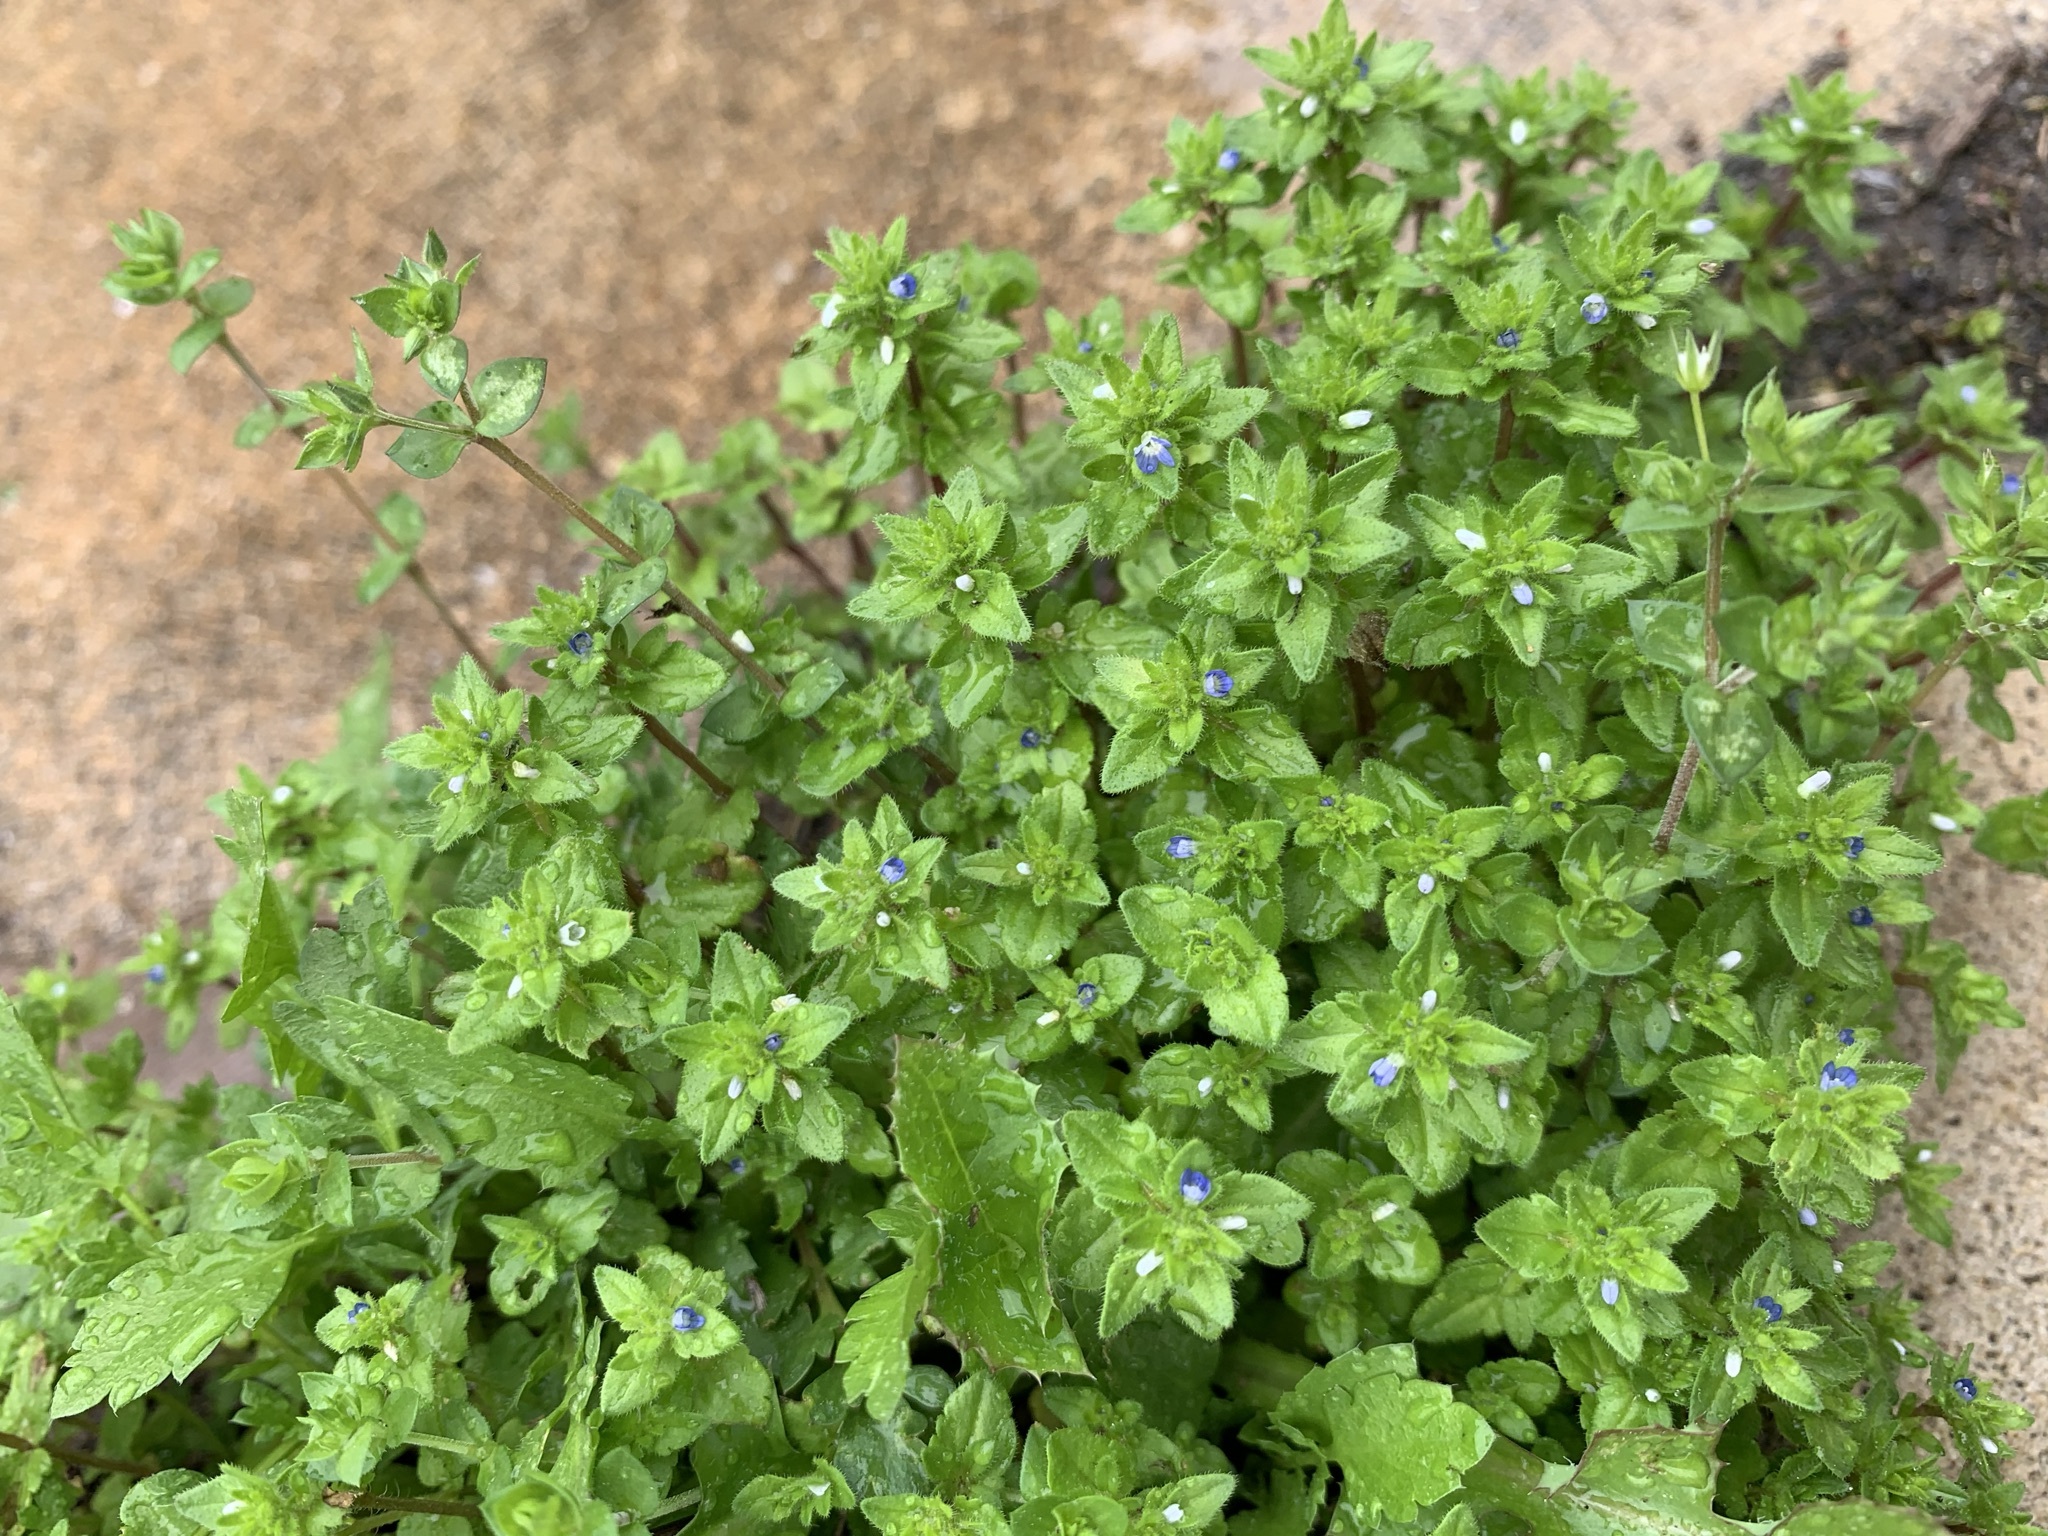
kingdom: Plantae
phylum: Tracheophyta
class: Magnoliopsida
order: Lamiales
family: Plantaginaceae
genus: Veronica
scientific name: Veronica arvensis
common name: Corn speedwell
